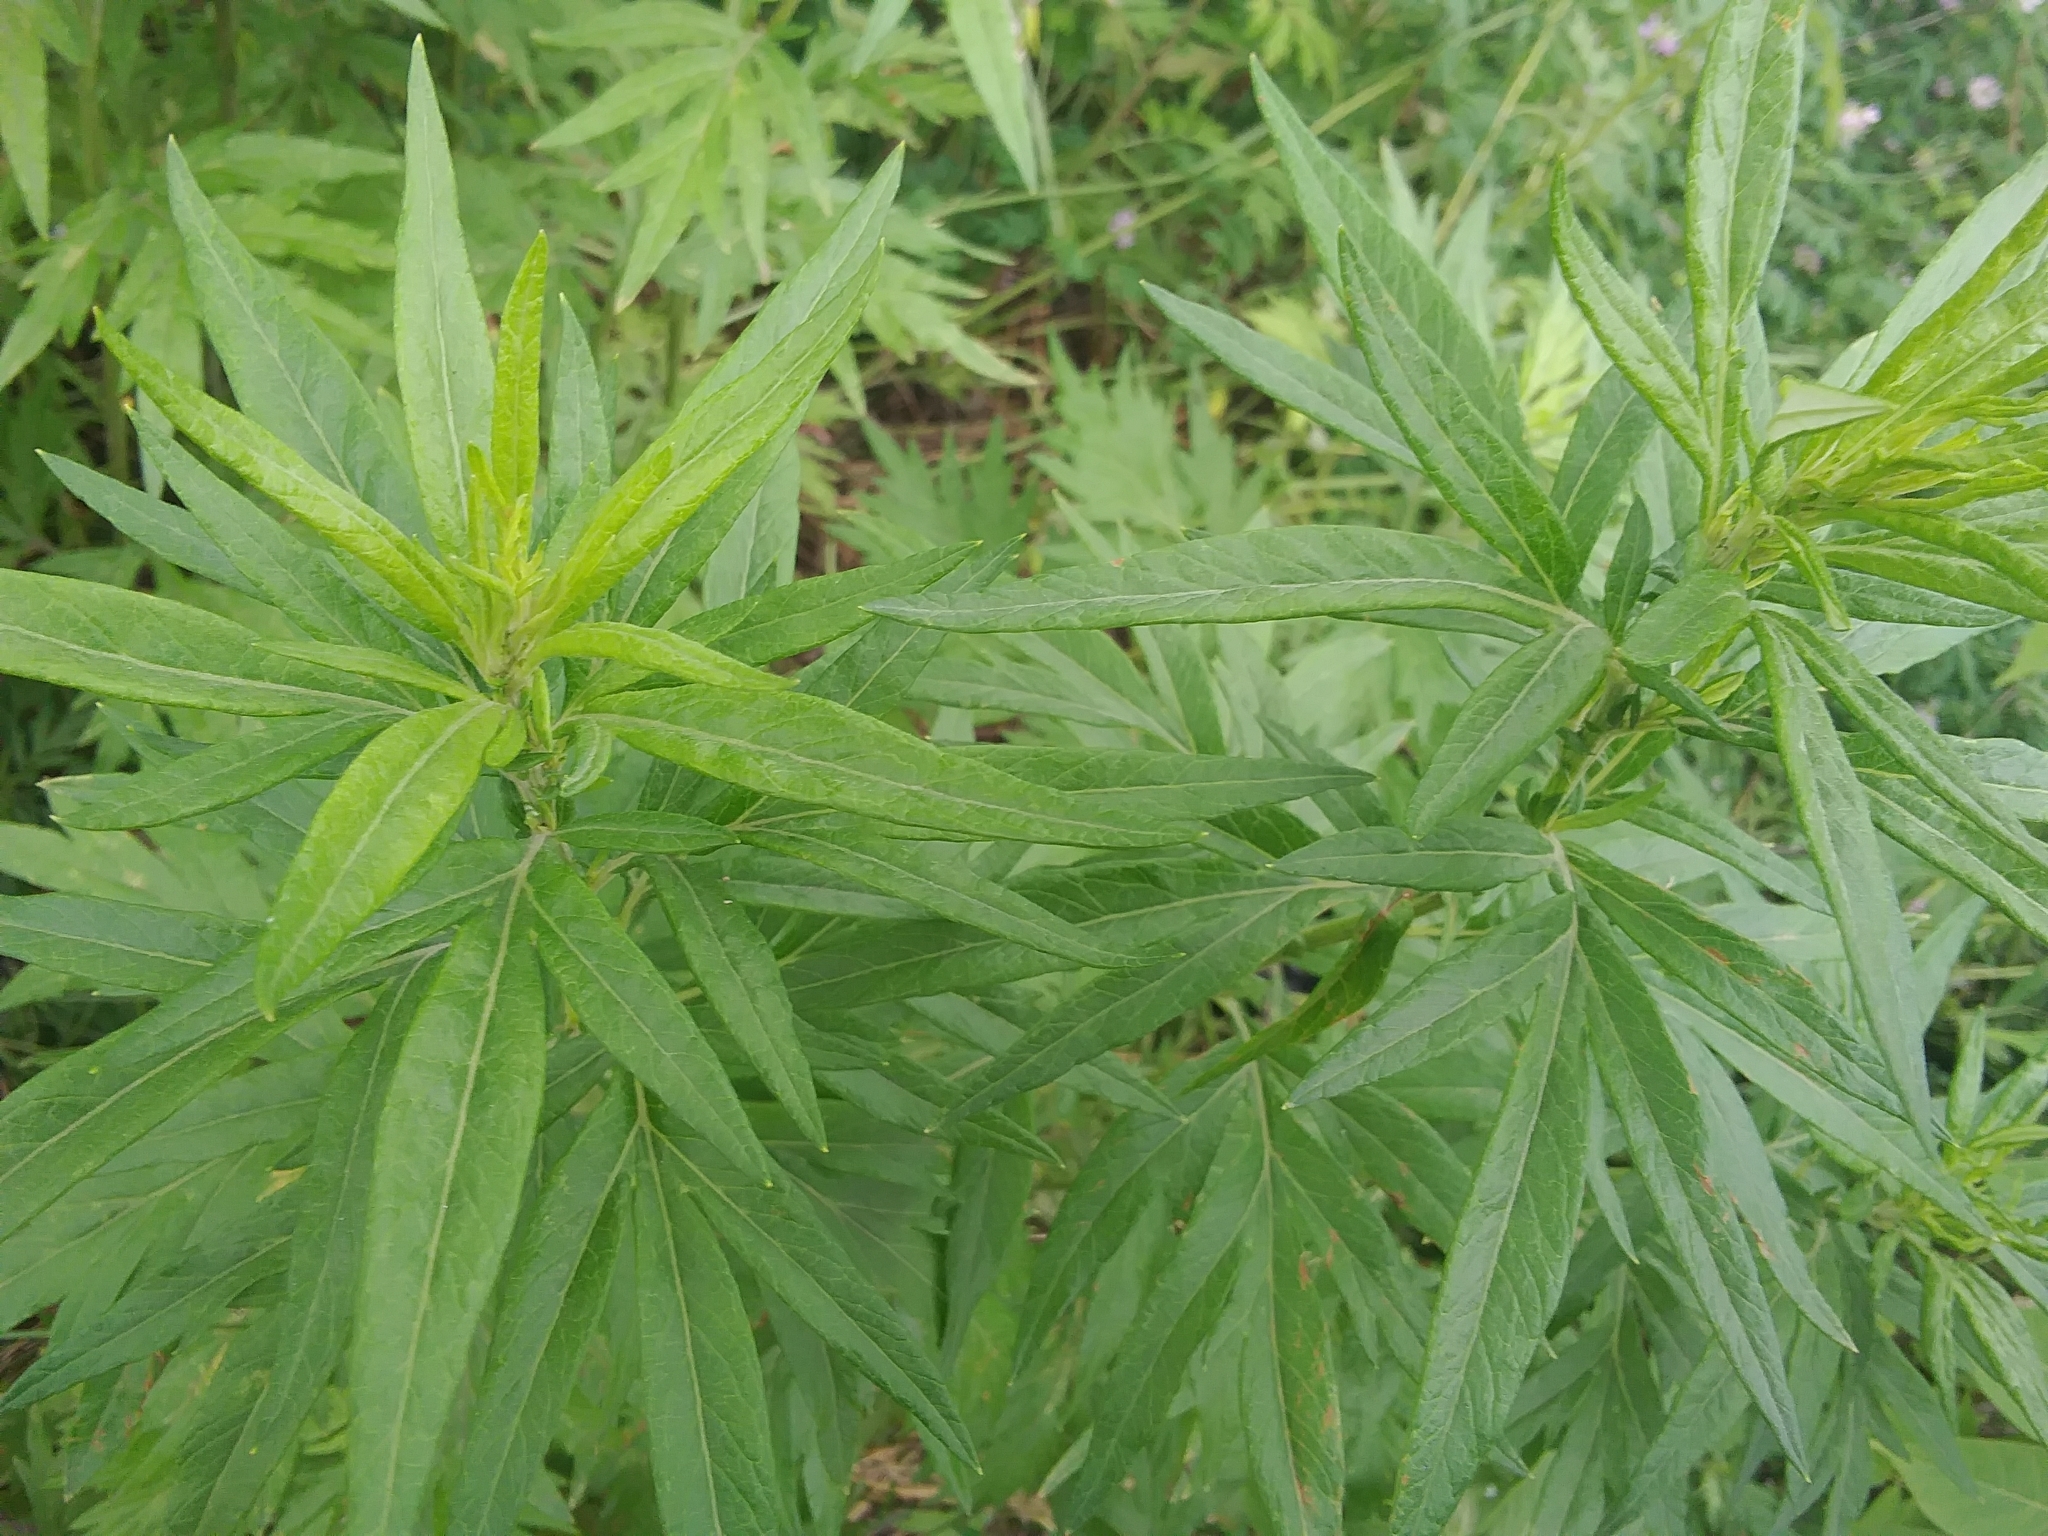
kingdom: Plantae
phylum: Tracheophyta
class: Magnoliopsida
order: Asterales
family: Asteraceae
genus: Artemisia
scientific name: Artemisia vulgaris
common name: Mugwort
